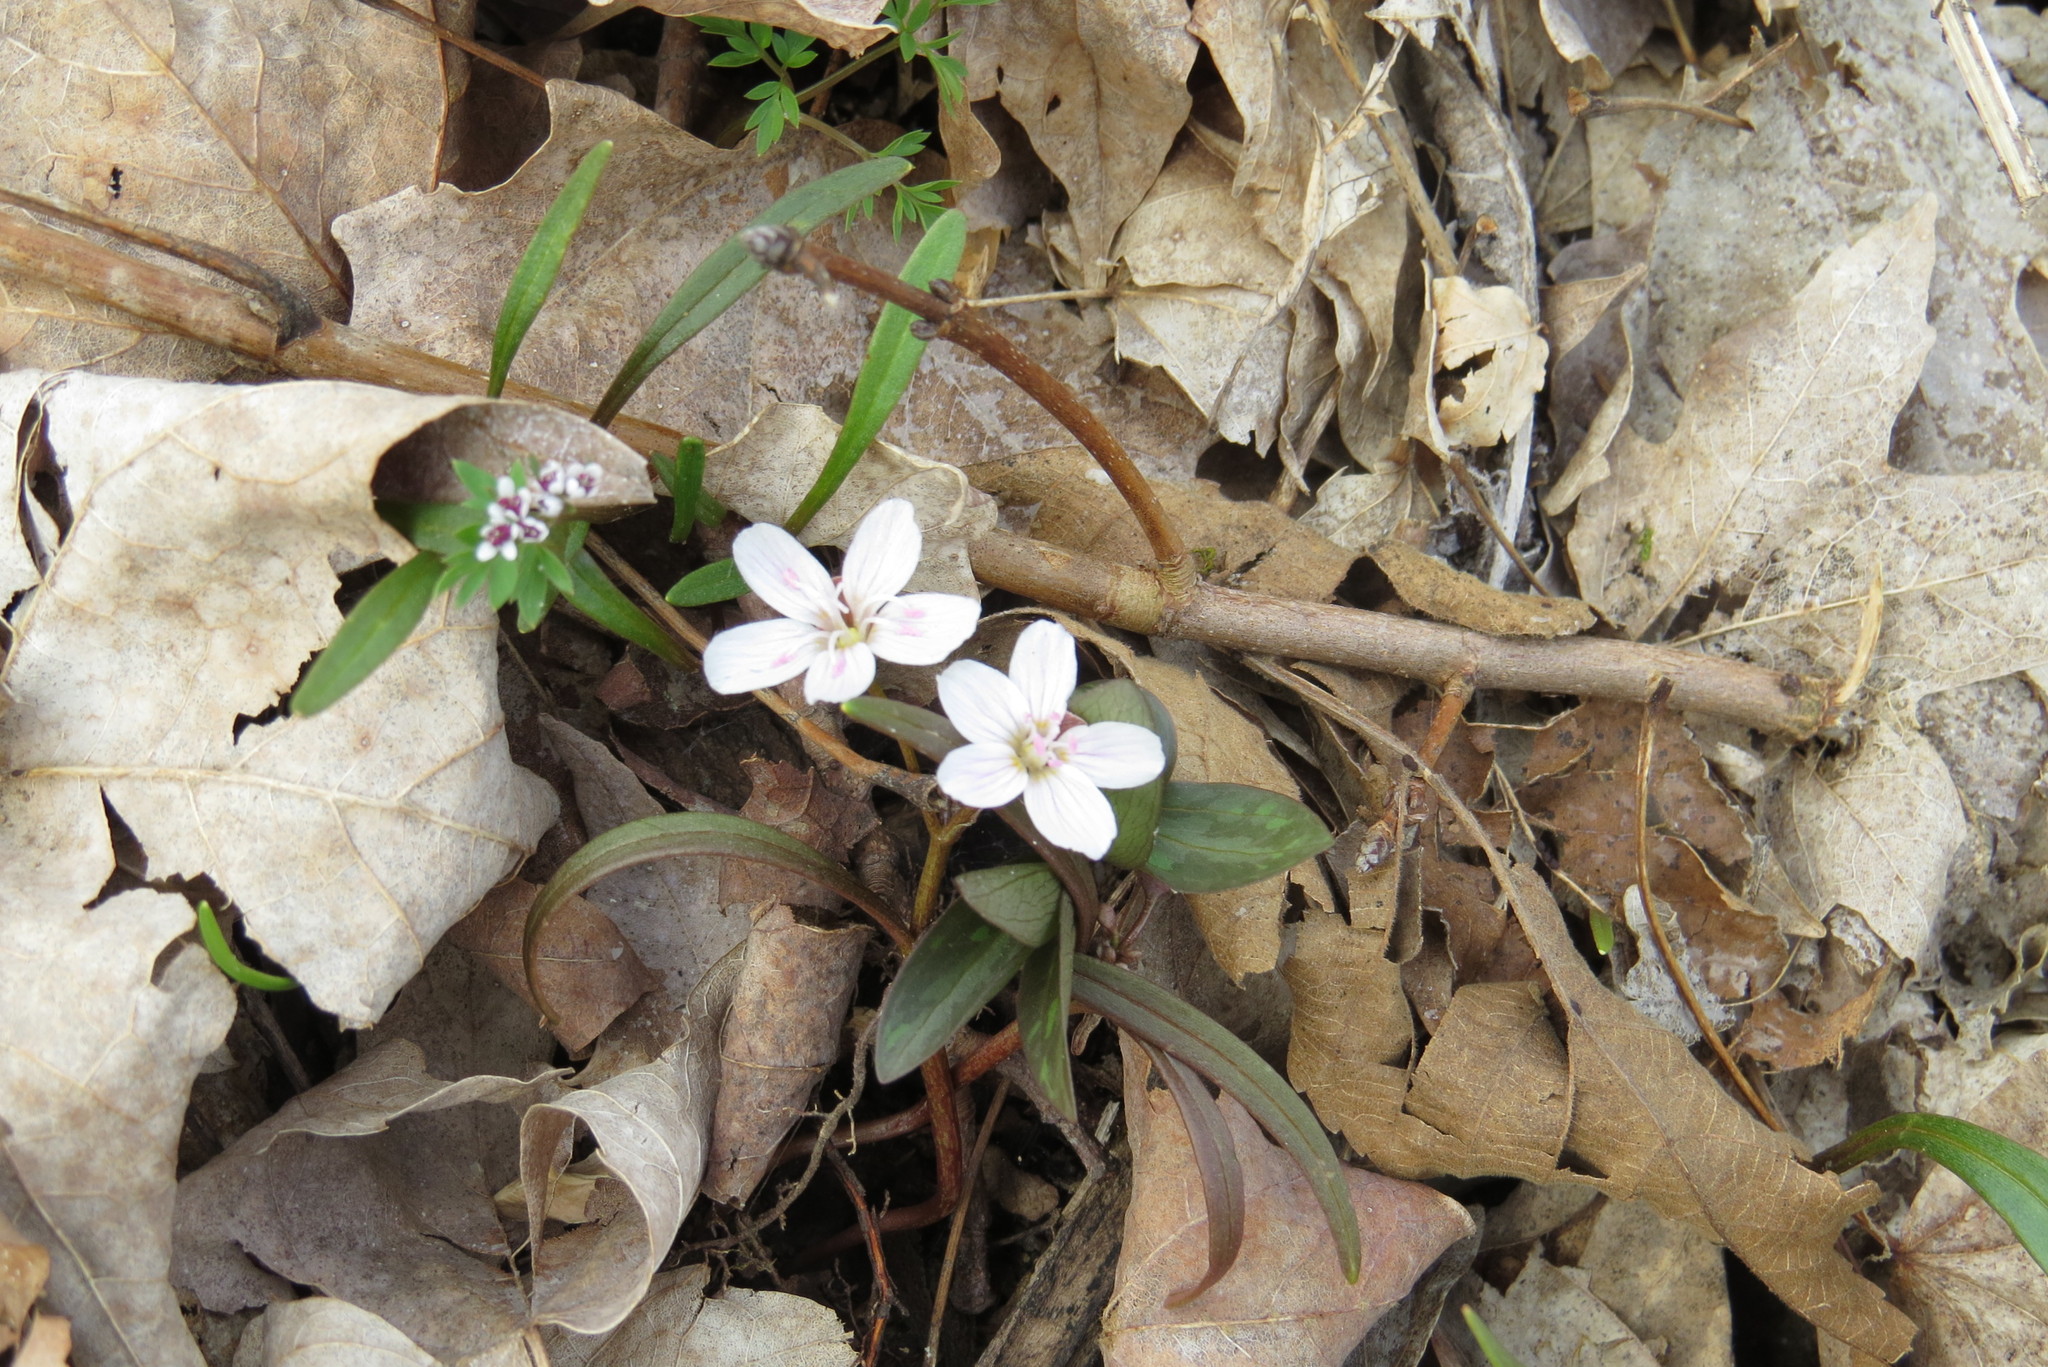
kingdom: Plantae
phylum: Tracheophyta
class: Magnoliopsida
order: Caryophyllales
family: Montiaceae
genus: Claytonia
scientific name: Claytonia virginica
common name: Virginia springbeauty
